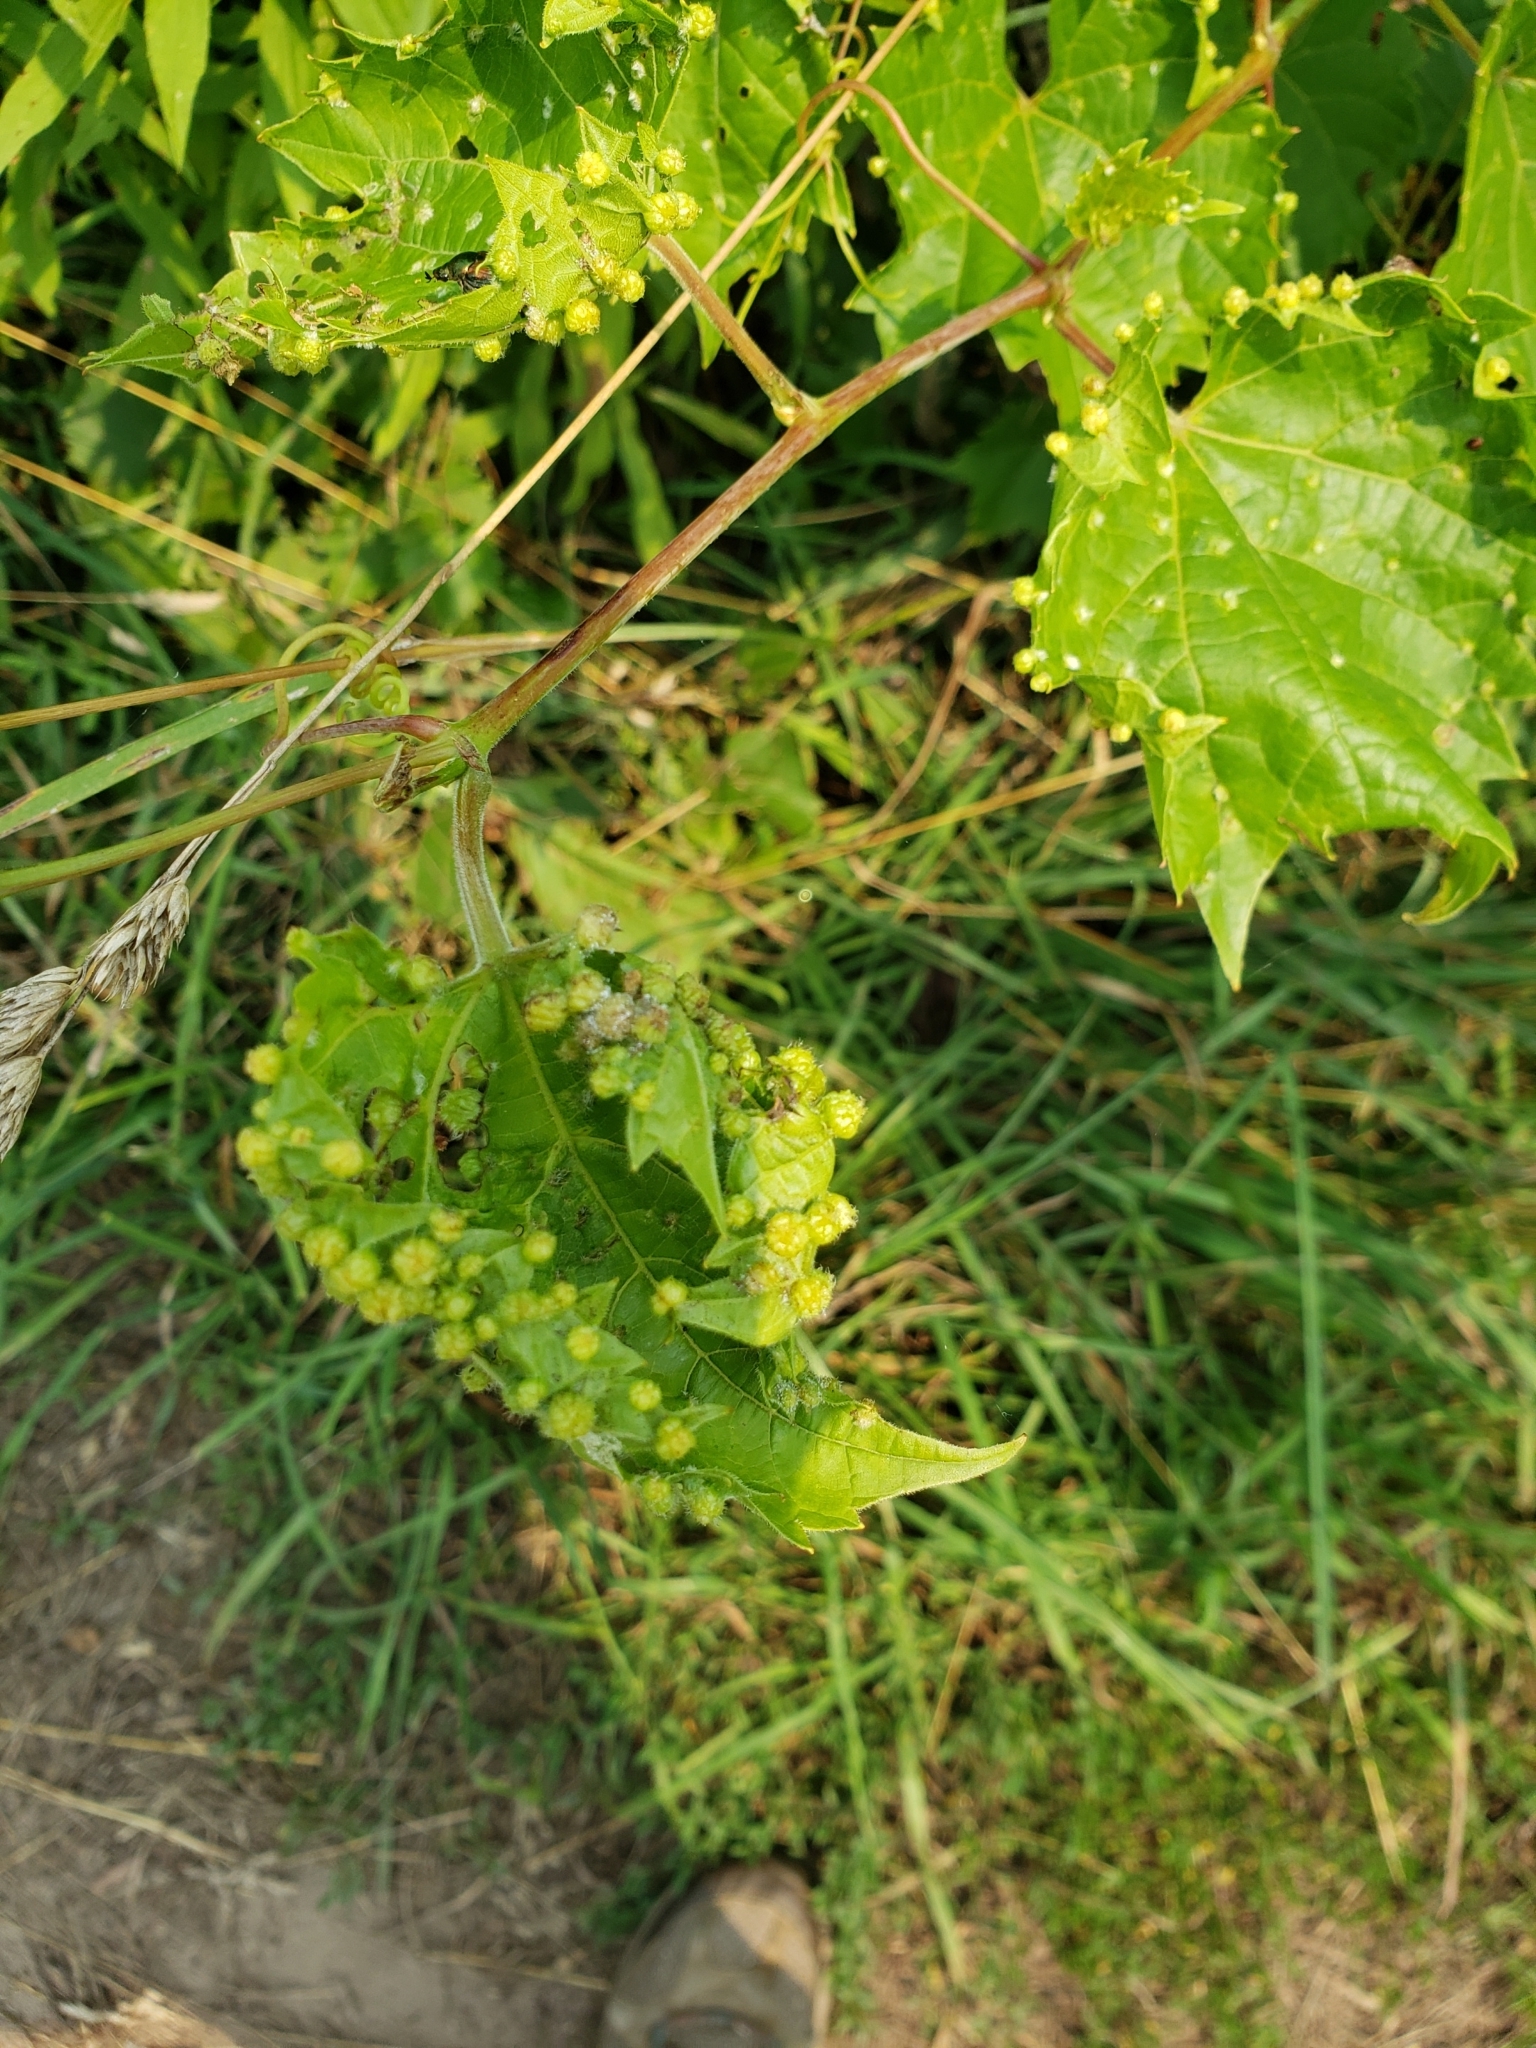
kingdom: Animalia
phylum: Arthropoda
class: Insecta
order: Hemiptera
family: Phylloxeridae
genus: Daktulosphaira
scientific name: Daktulosphaira vitifoliae
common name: Grape phylloxera
